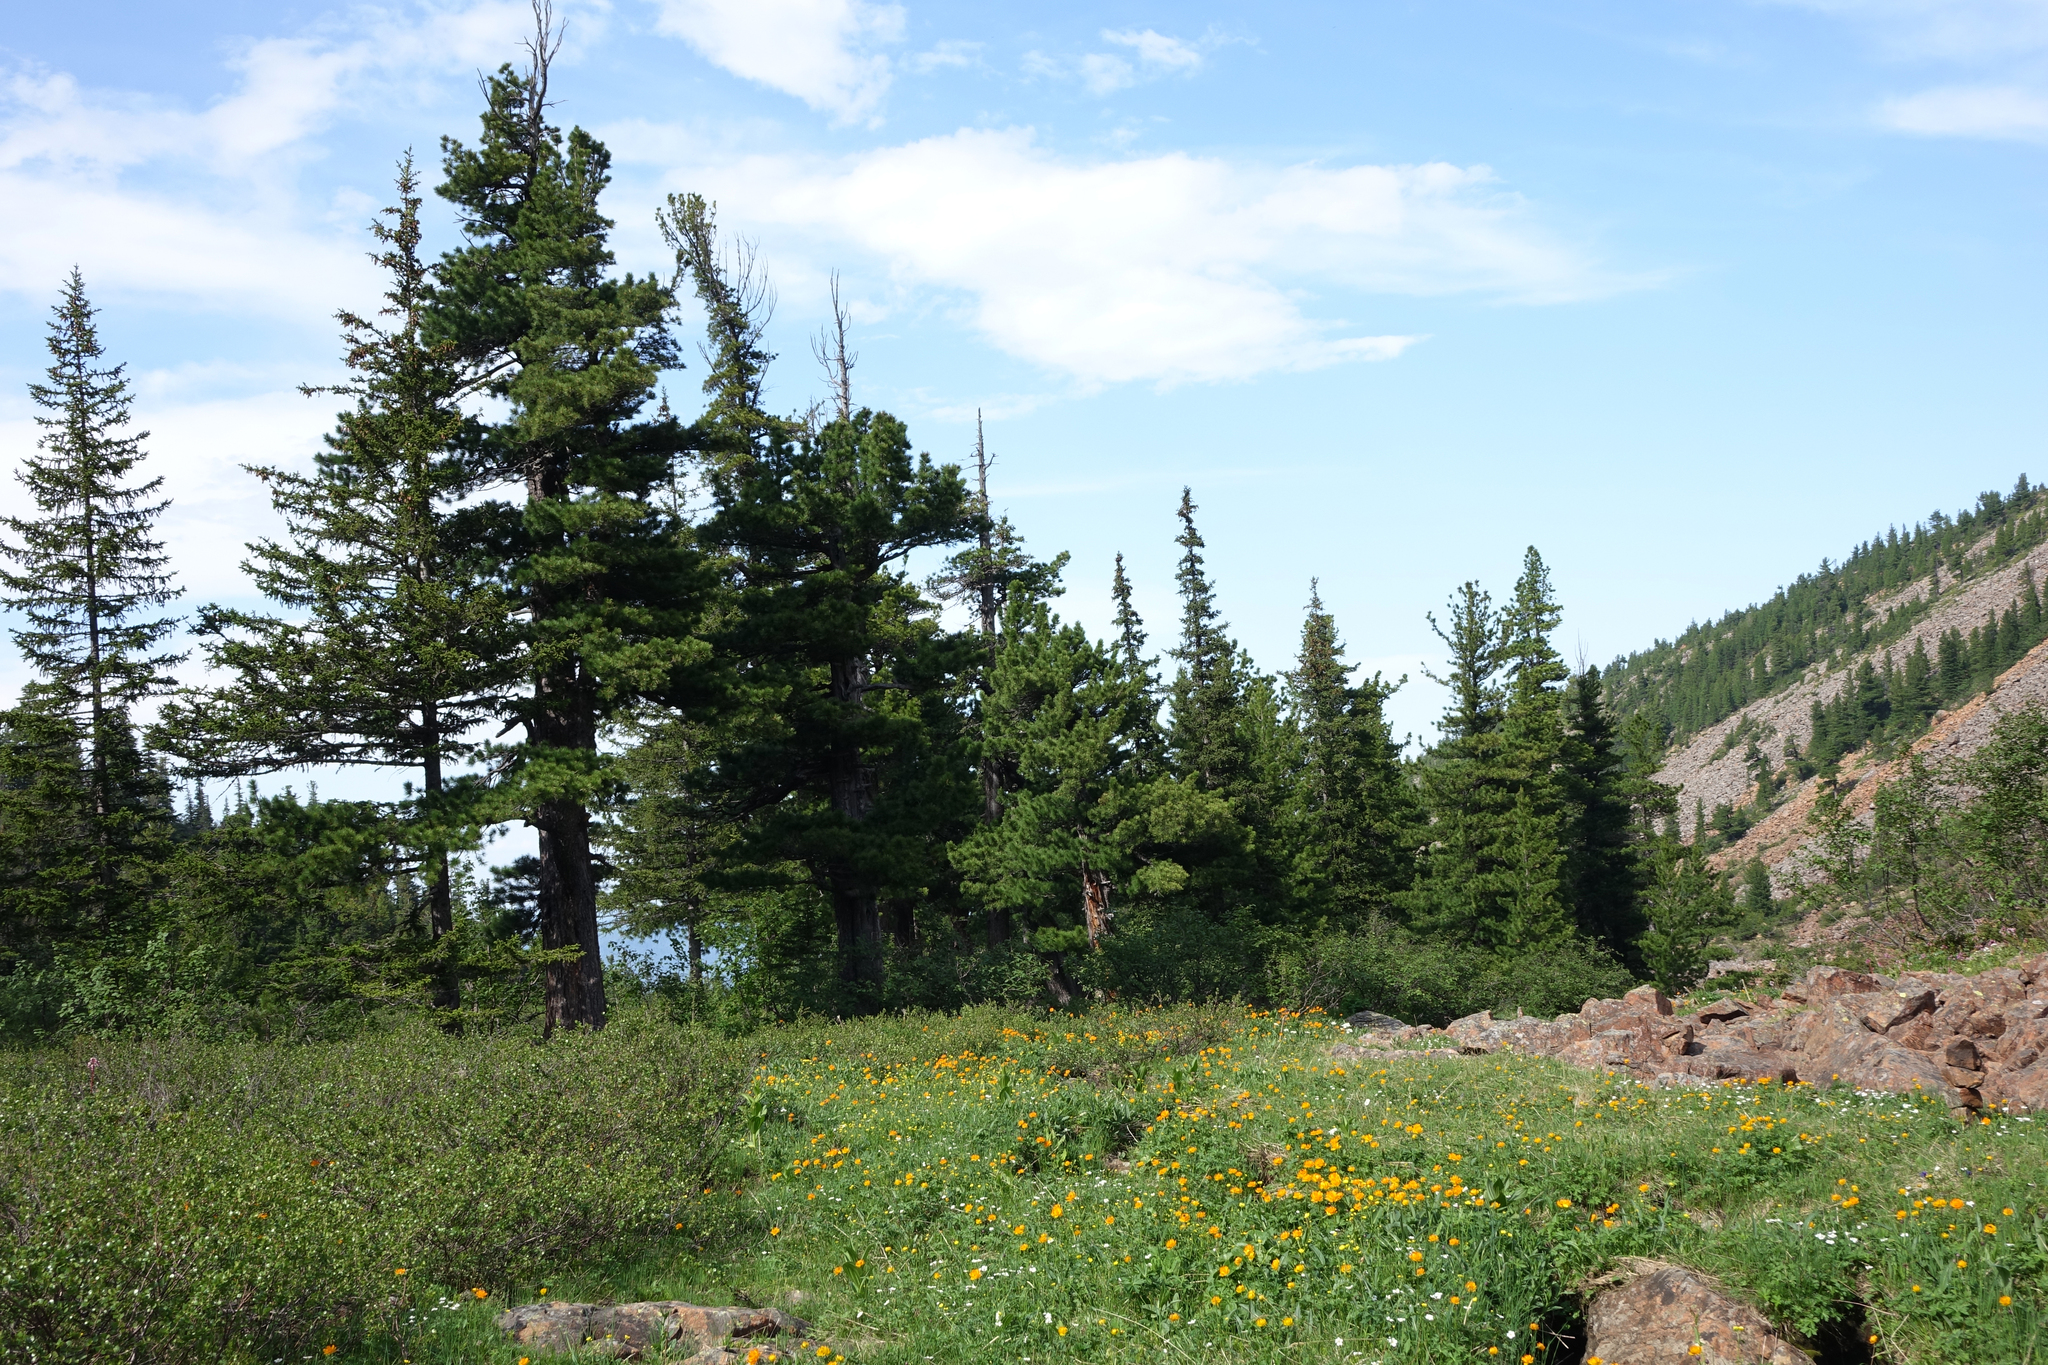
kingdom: Plantae
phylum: Tracheophyta
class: Pinopsida
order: Pinales
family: Pinaceae
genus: Pinus
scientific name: Pinus sibirica
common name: Siberian pine
